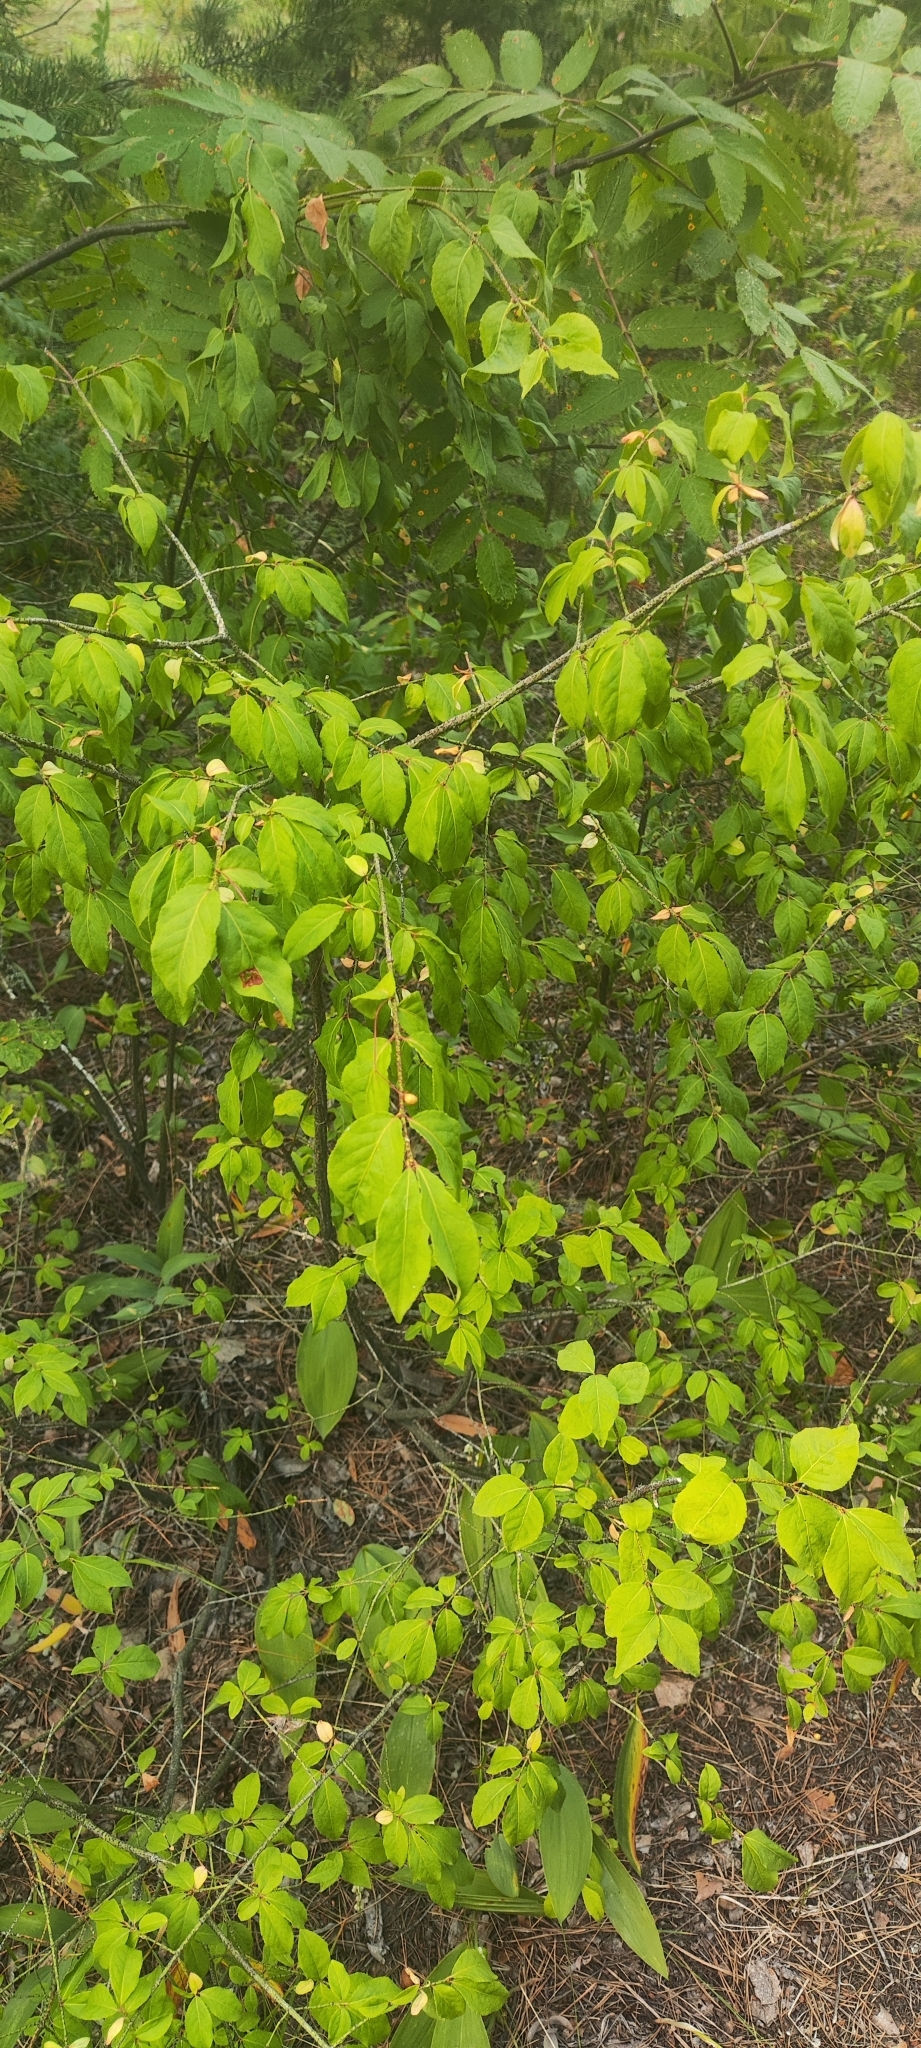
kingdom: Plantae
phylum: Tracheophyta
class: Magnoliopsida
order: Dipsacales
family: Caprifoliaceae
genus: Lonicera
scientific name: Lonicera xylosteum
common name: Fly honeysuckle
